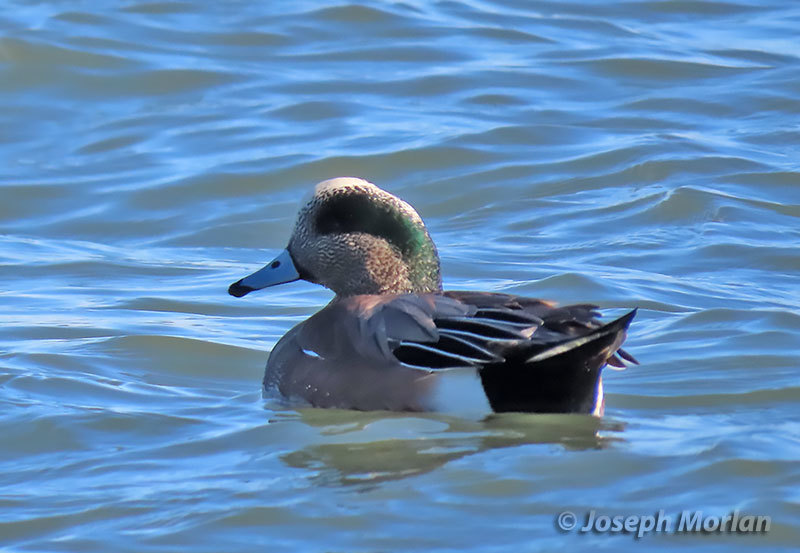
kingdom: Animalia
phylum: Chordata
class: Aves
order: Anseriformes
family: Anatidae
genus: Mareca
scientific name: Mareca americana
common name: American wigeon
